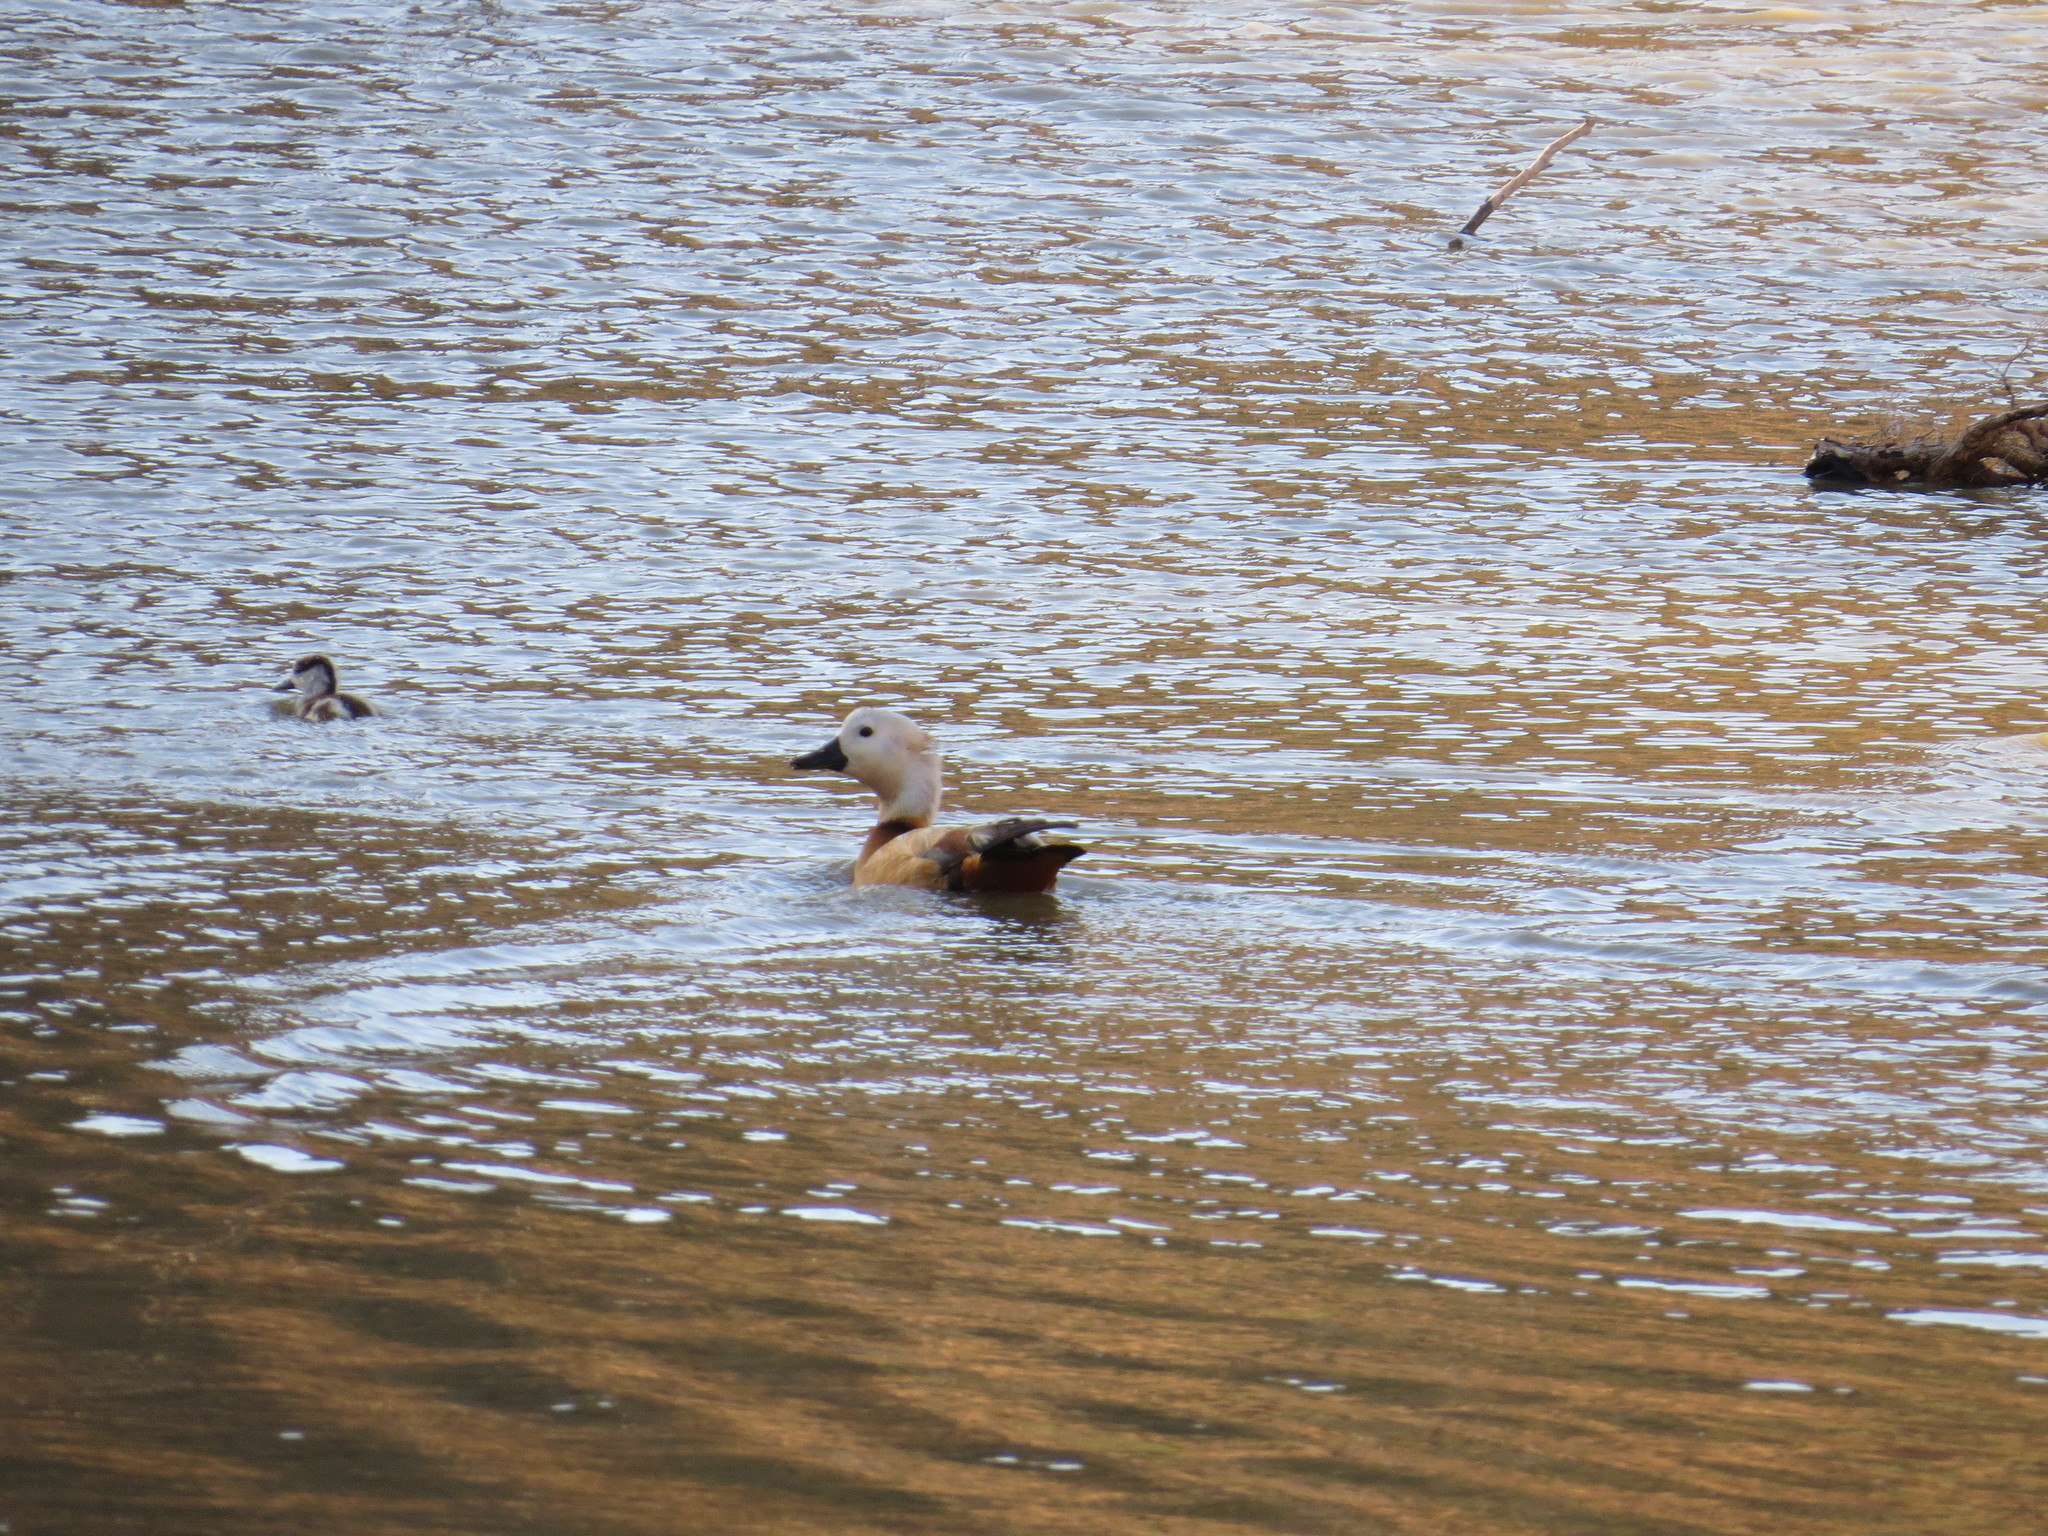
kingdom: Animalia
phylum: Chordata
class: Aves
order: Anseriformes
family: Anatidae
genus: Tadorna
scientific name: Tadorna ferruginea
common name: Ruddy shelduck
